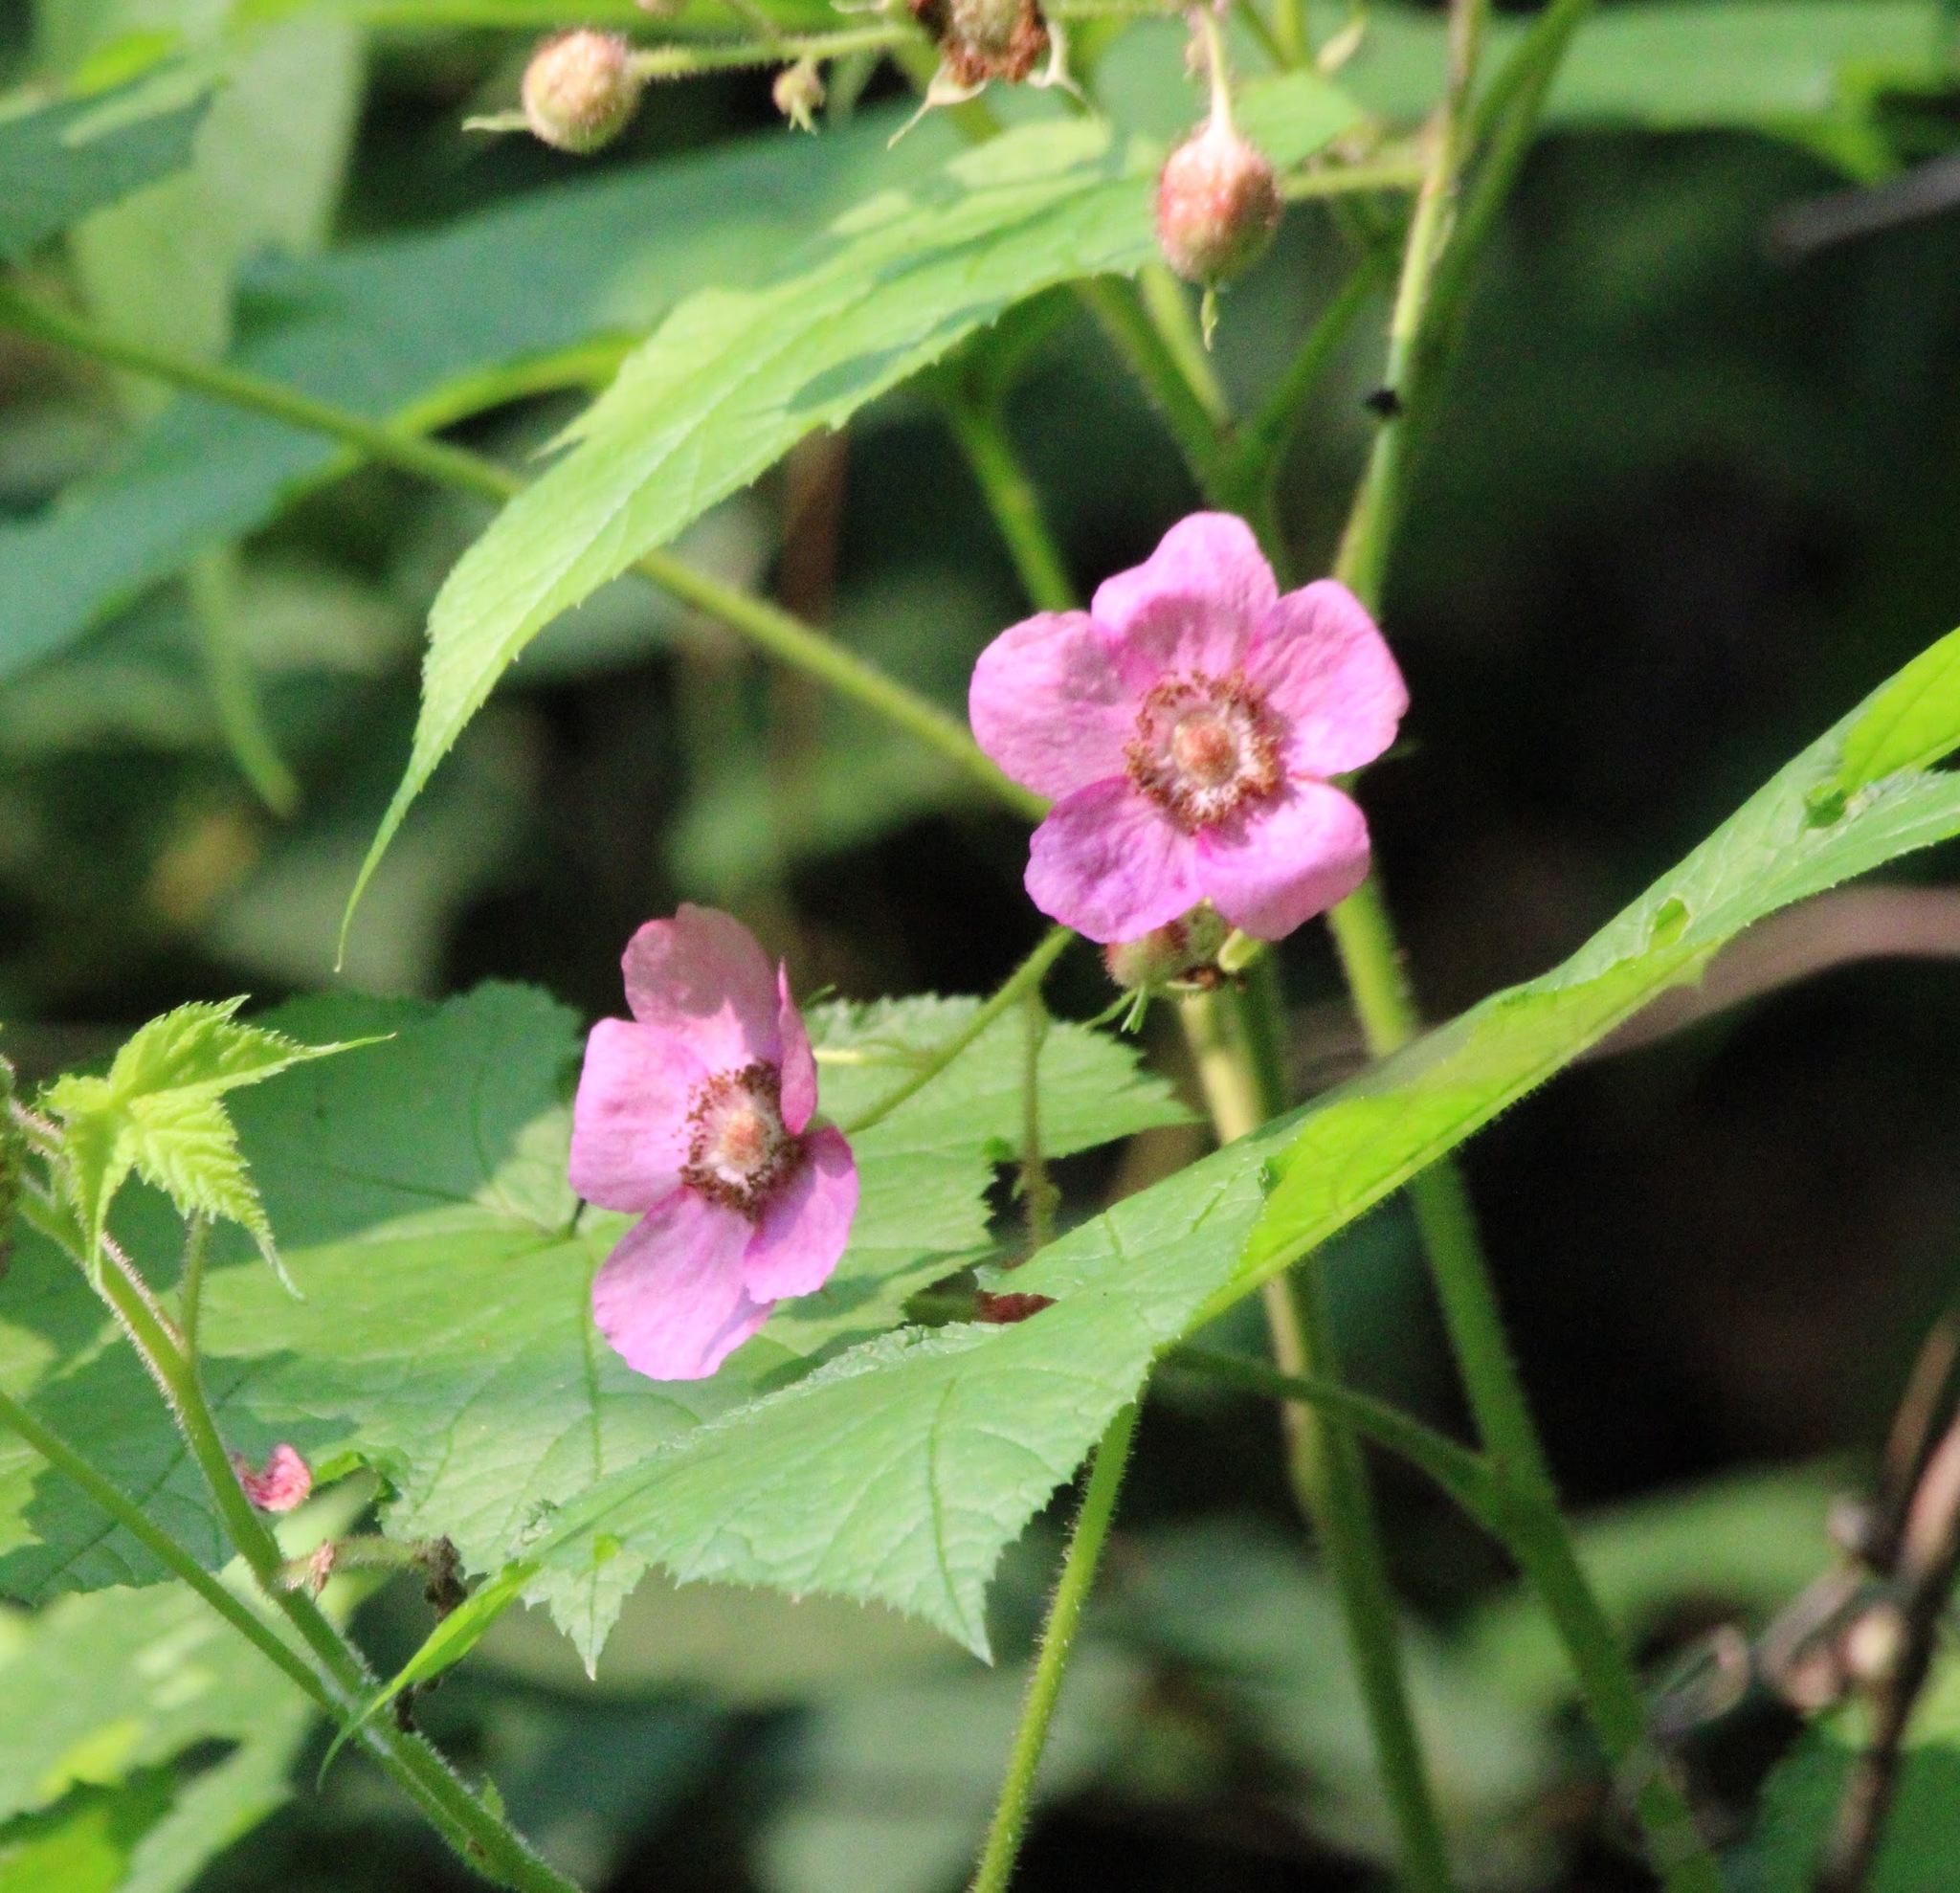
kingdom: Plantae
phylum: Tracheophyta
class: Magnoliopsida
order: Rosales
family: Rosaceae
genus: Rubus
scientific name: Rubus odoratus
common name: Purple-flowered raspberry
